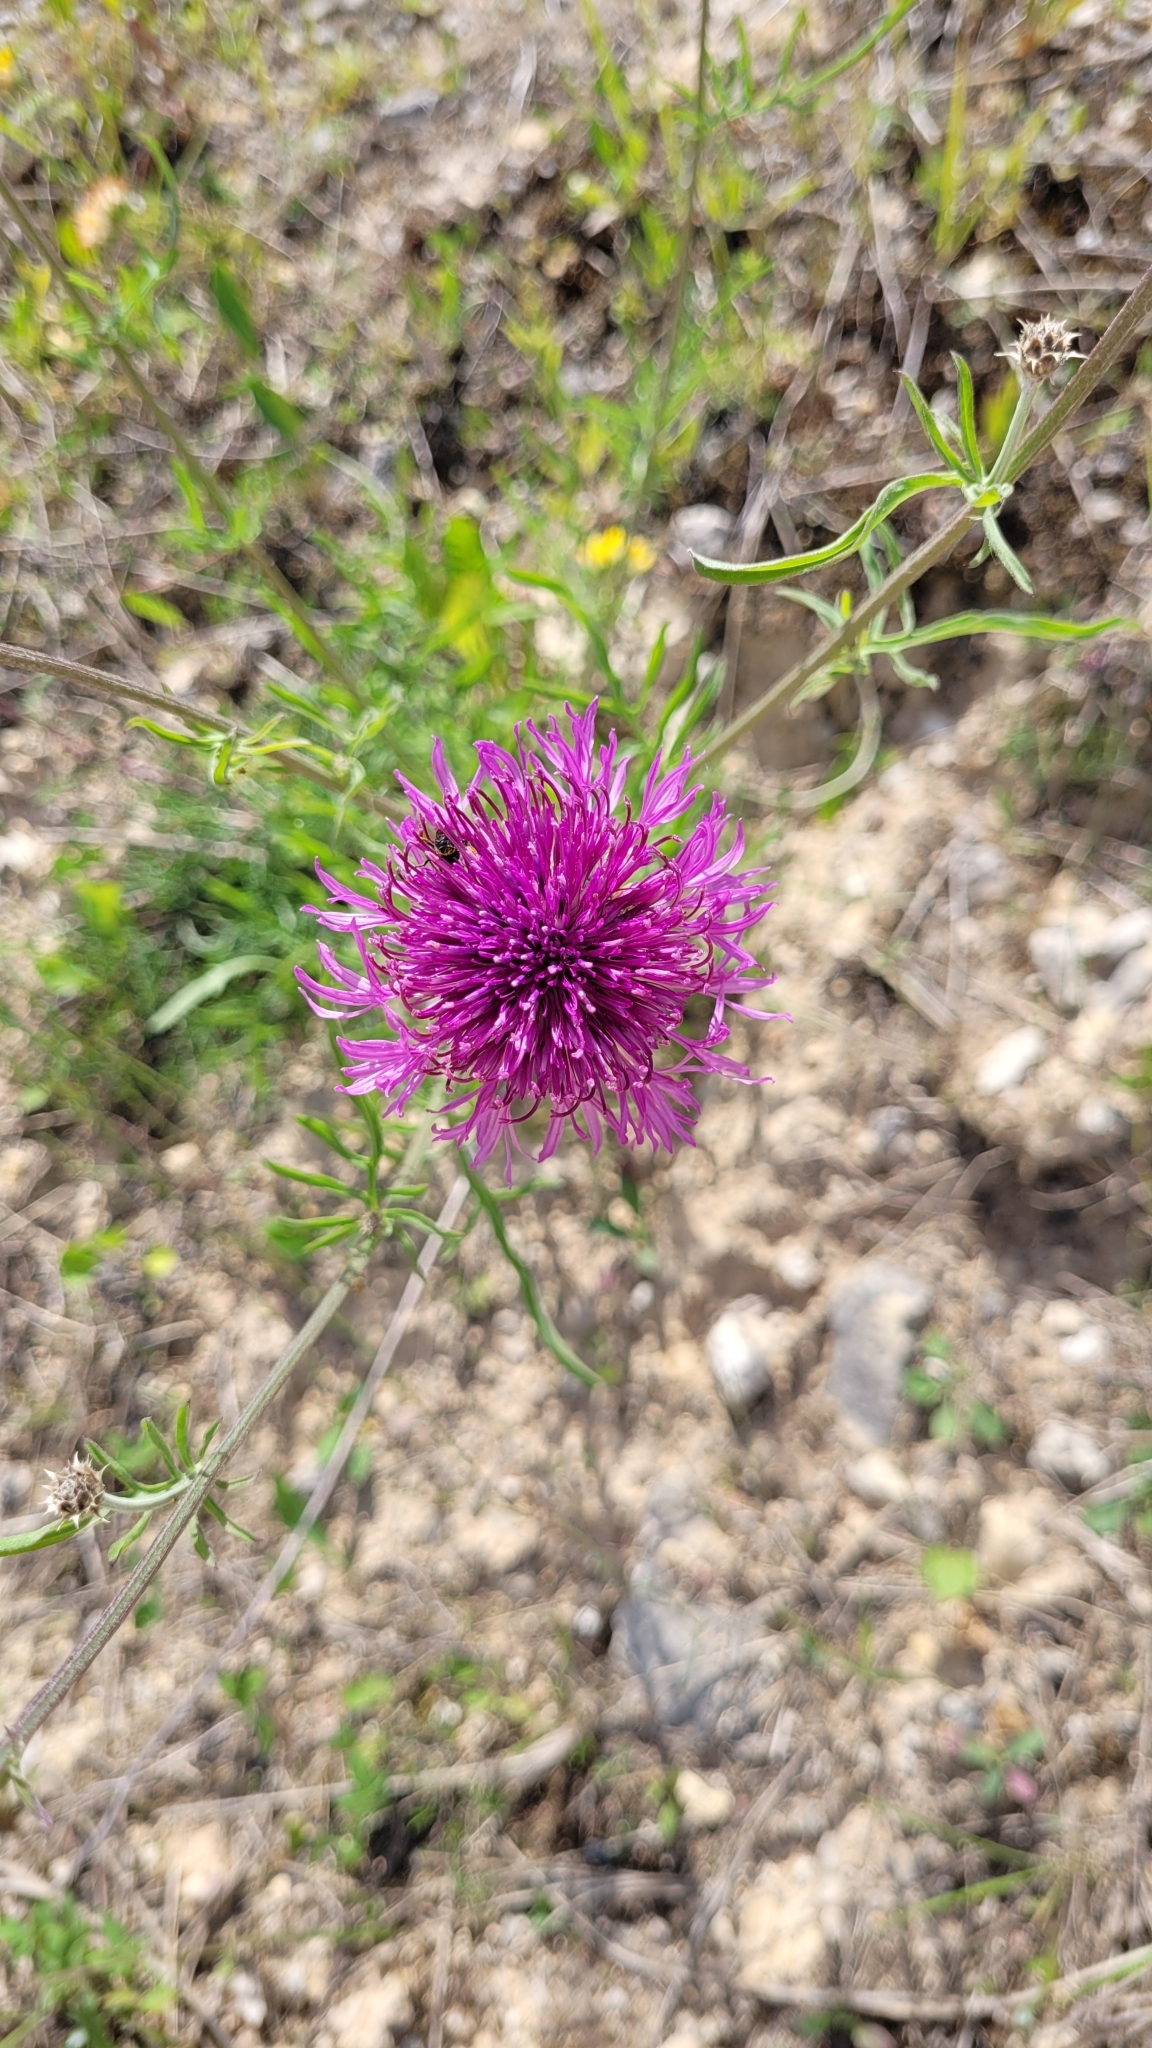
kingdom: Plantae
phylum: Tracheophyta
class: Magnoliopsida
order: Asterales
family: Asteraceae
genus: Centaurea
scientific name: Centaurea scabiosa
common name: Greater knapweed
